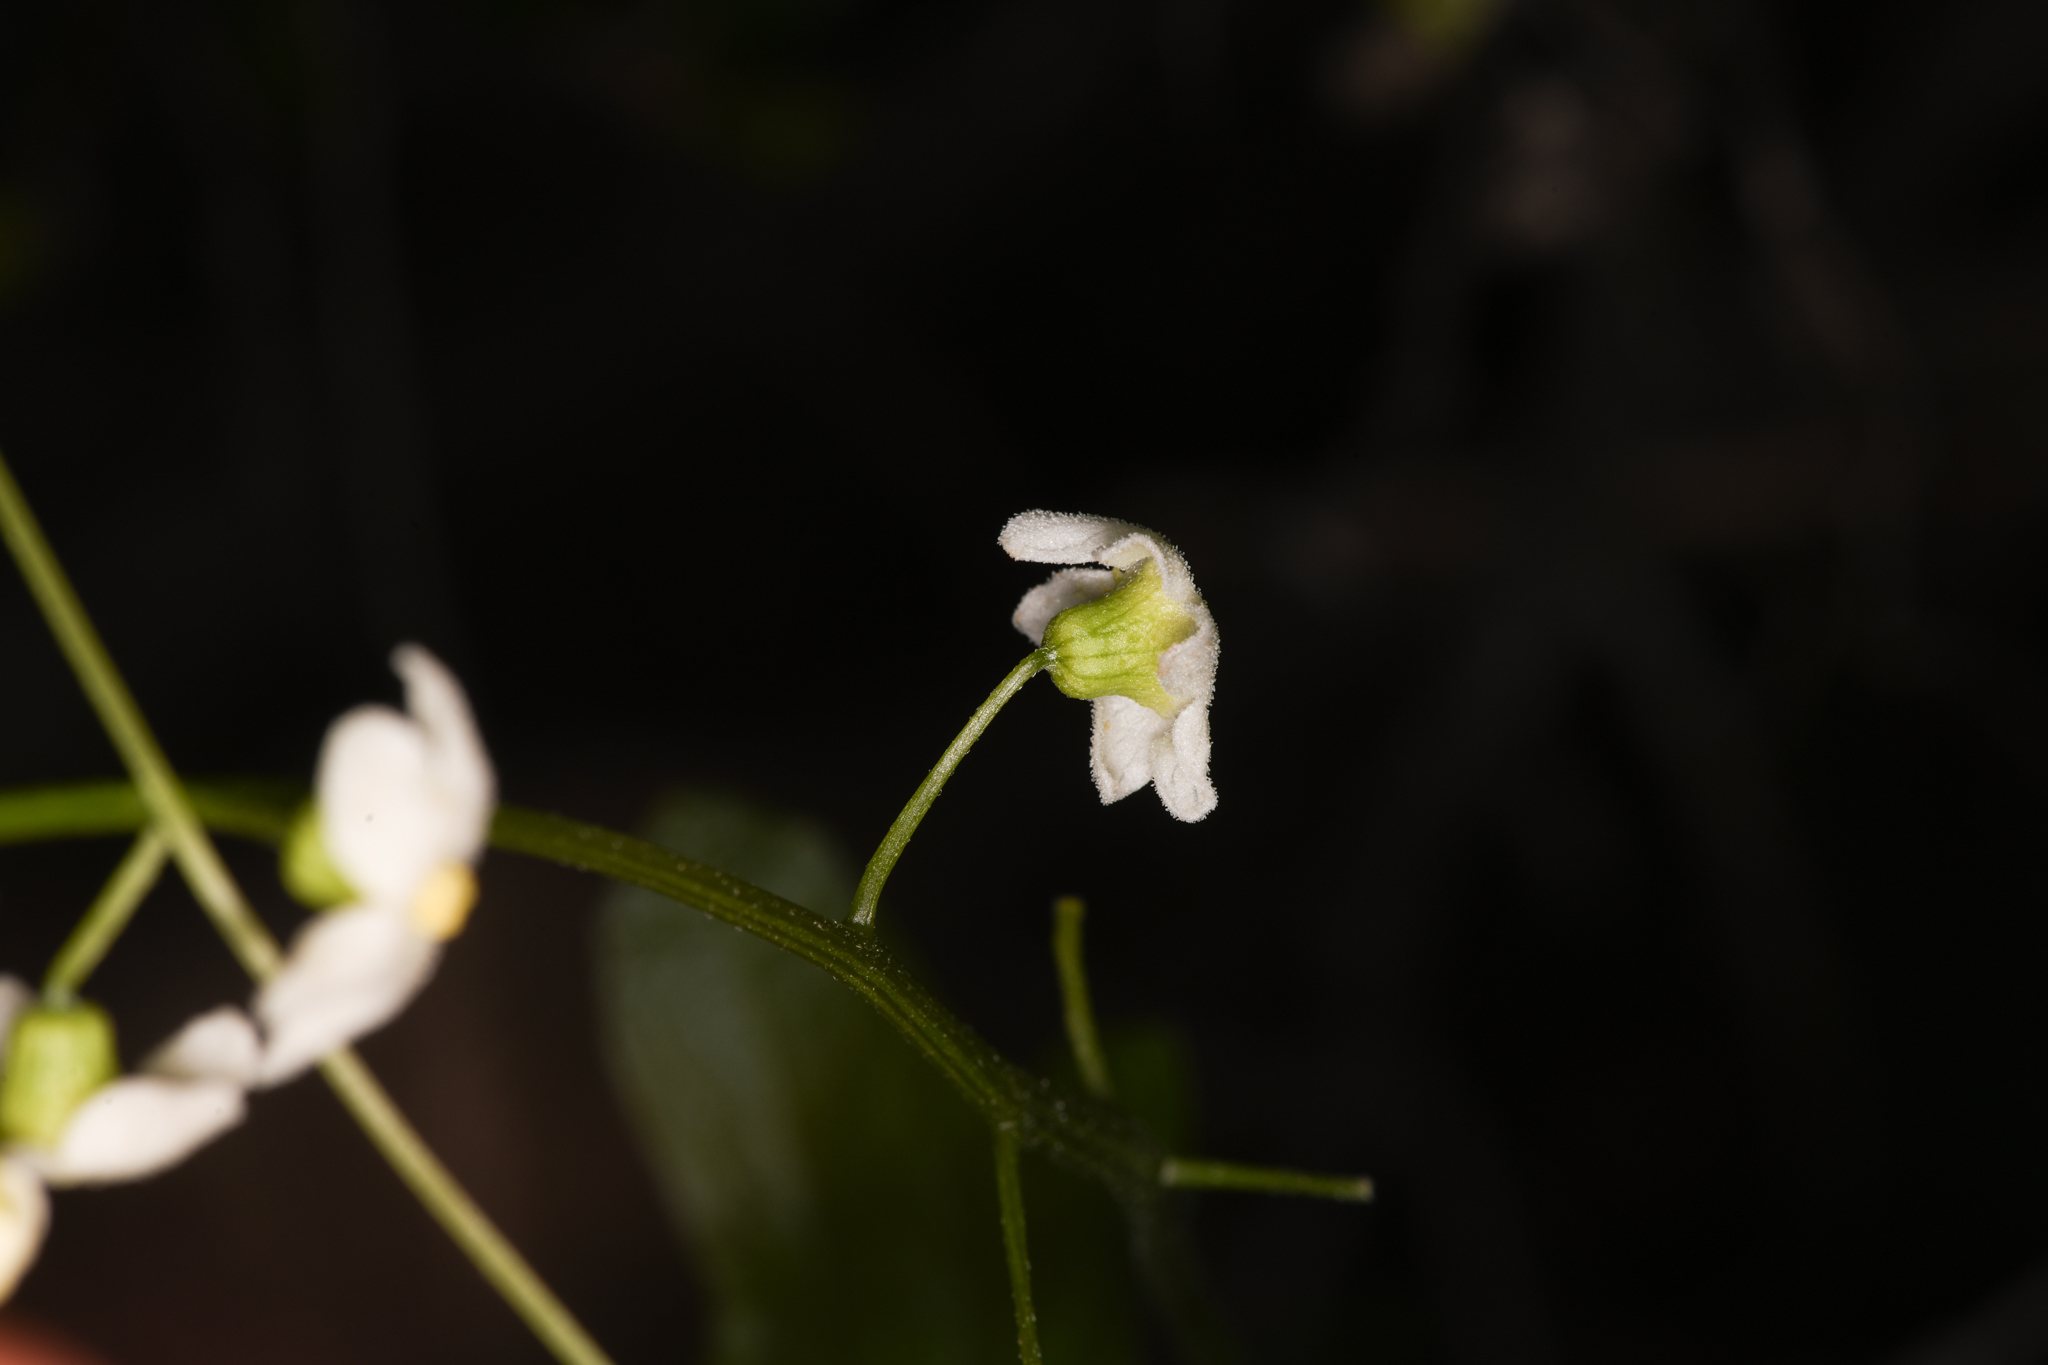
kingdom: Plantae
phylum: Tracheophyta
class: Magnoliopsida
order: Cucurbitales
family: Cucurbitaceae
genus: Marah
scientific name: Marah horrida
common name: Sierra manroot
